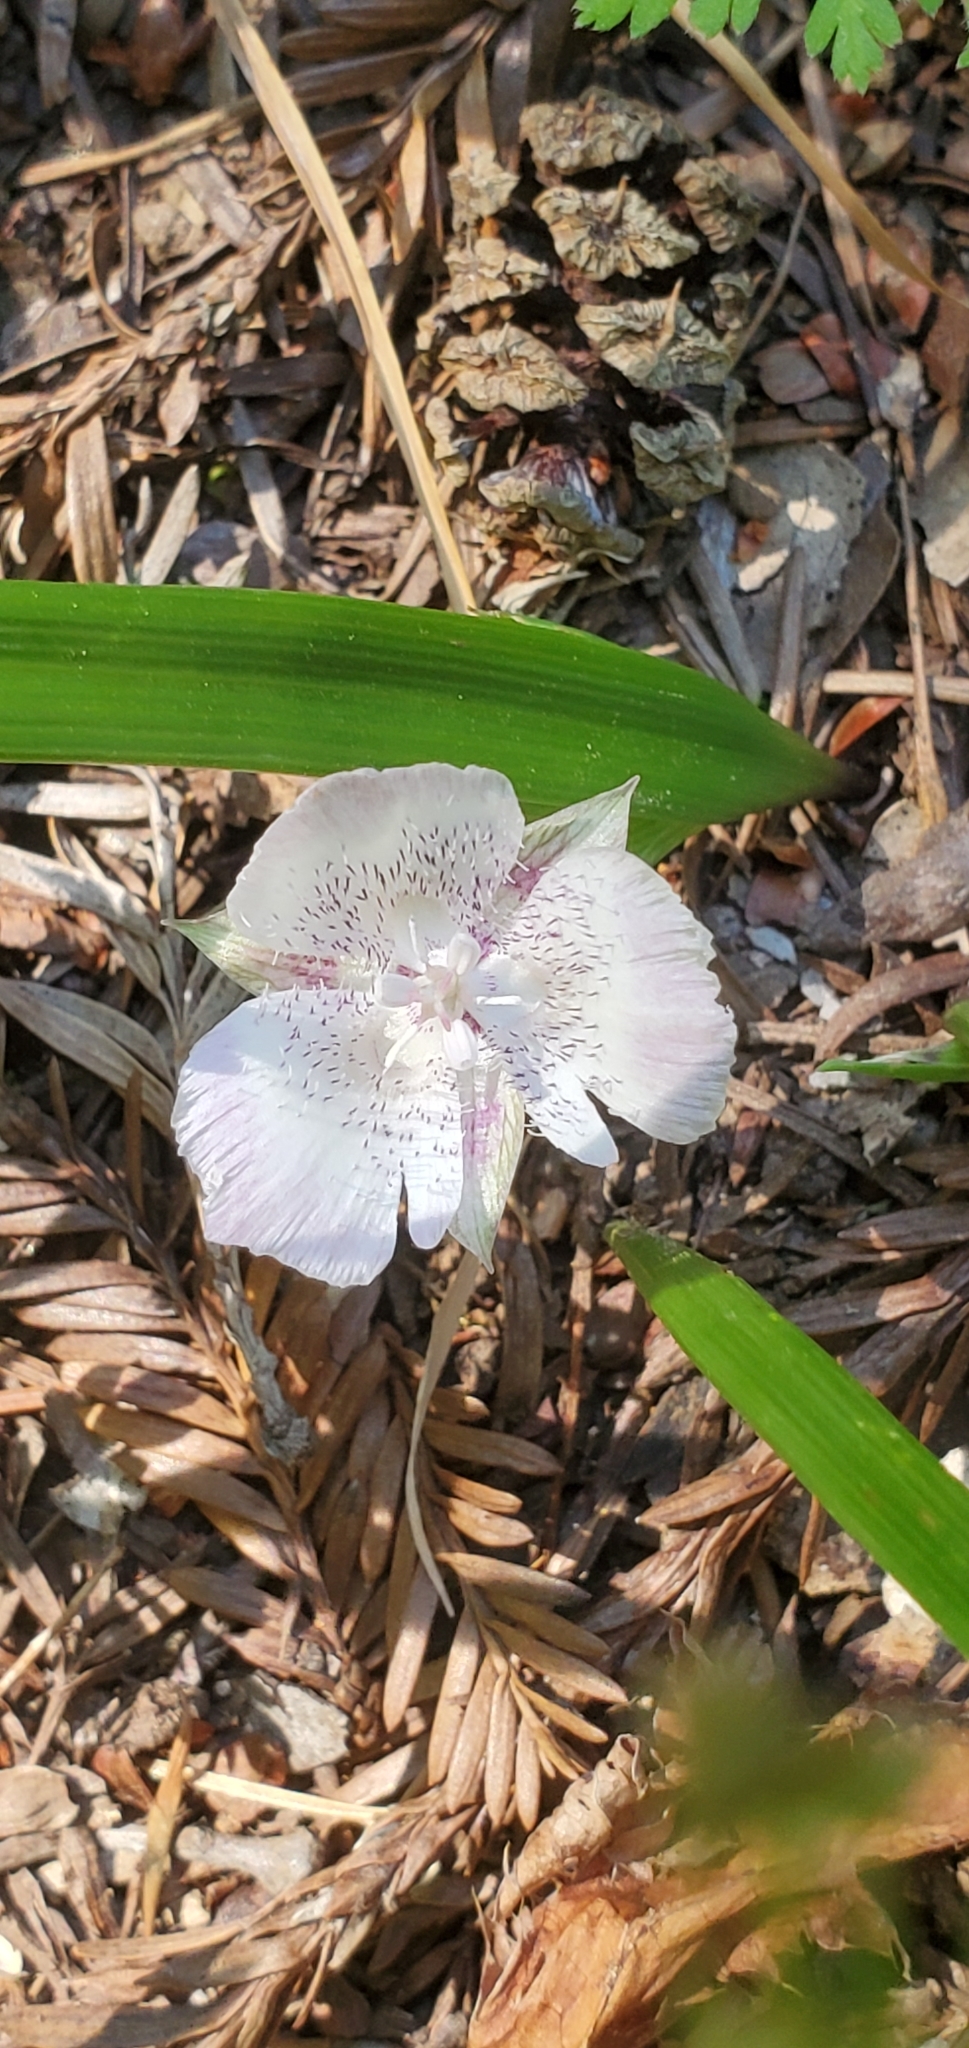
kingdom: Plantae
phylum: Tracheophyta
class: Liliopsida
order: Liliales
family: Liliaceae
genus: Calochortus
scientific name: Calochortus tolmiei
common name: Pussy-ears
